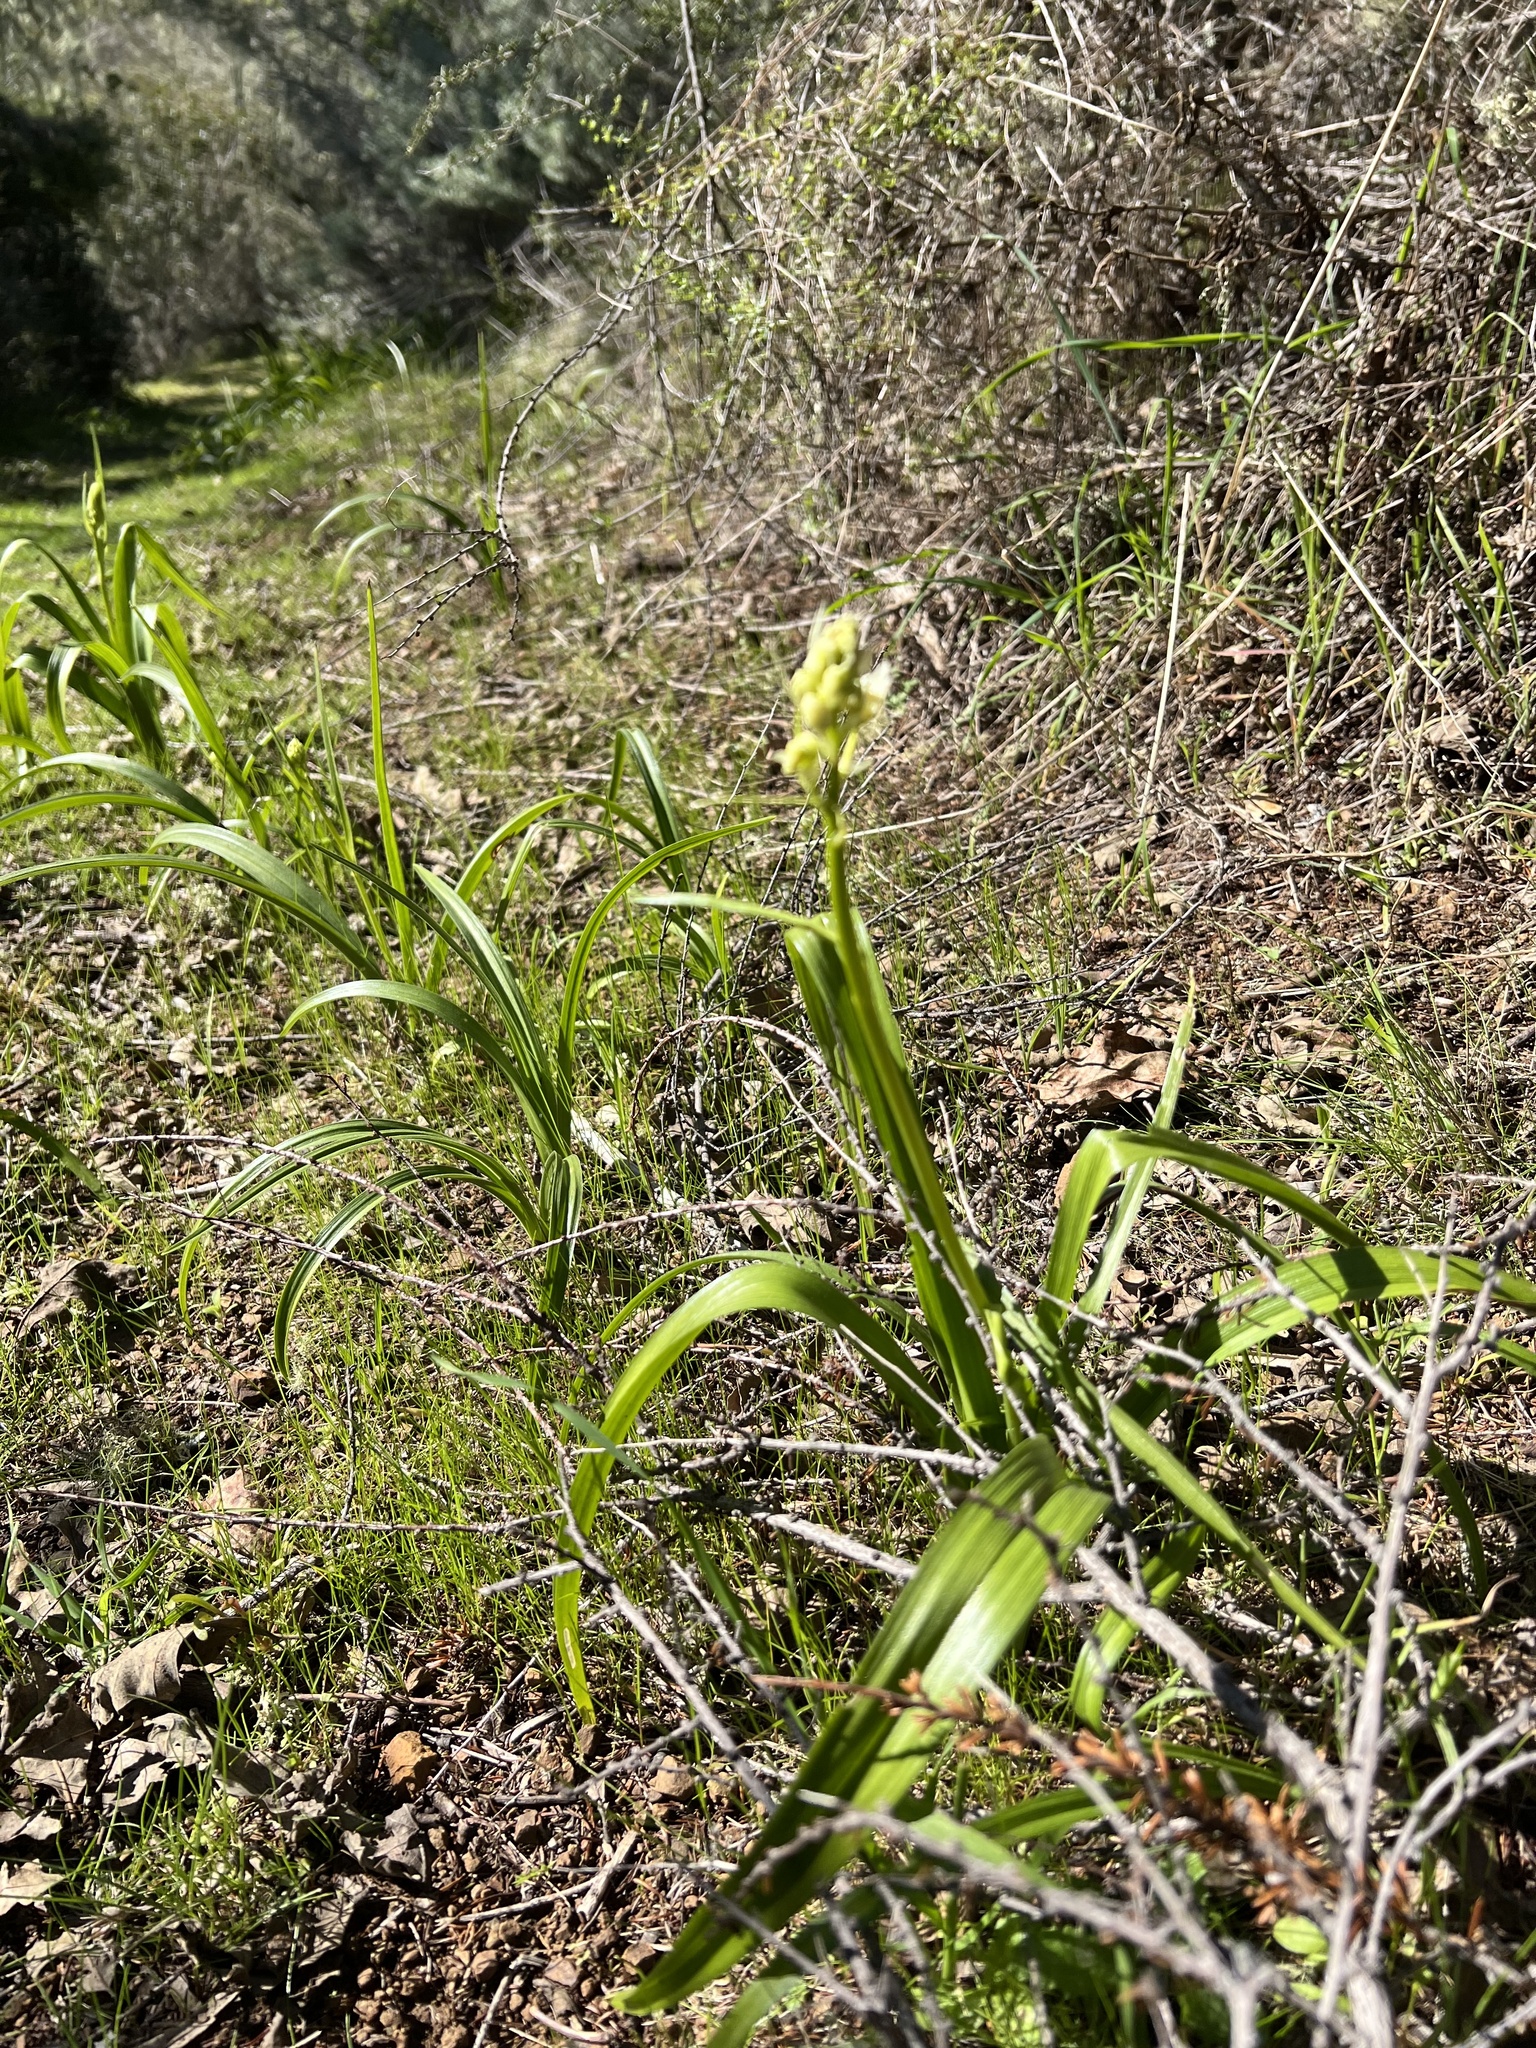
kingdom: Plantae
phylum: Tracheophyta
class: Liliopsida
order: Liliales
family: Melanthiaceae
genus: Toxicoscordion
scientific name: Toxicoscordion fremontii
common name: Fremont's death camas
